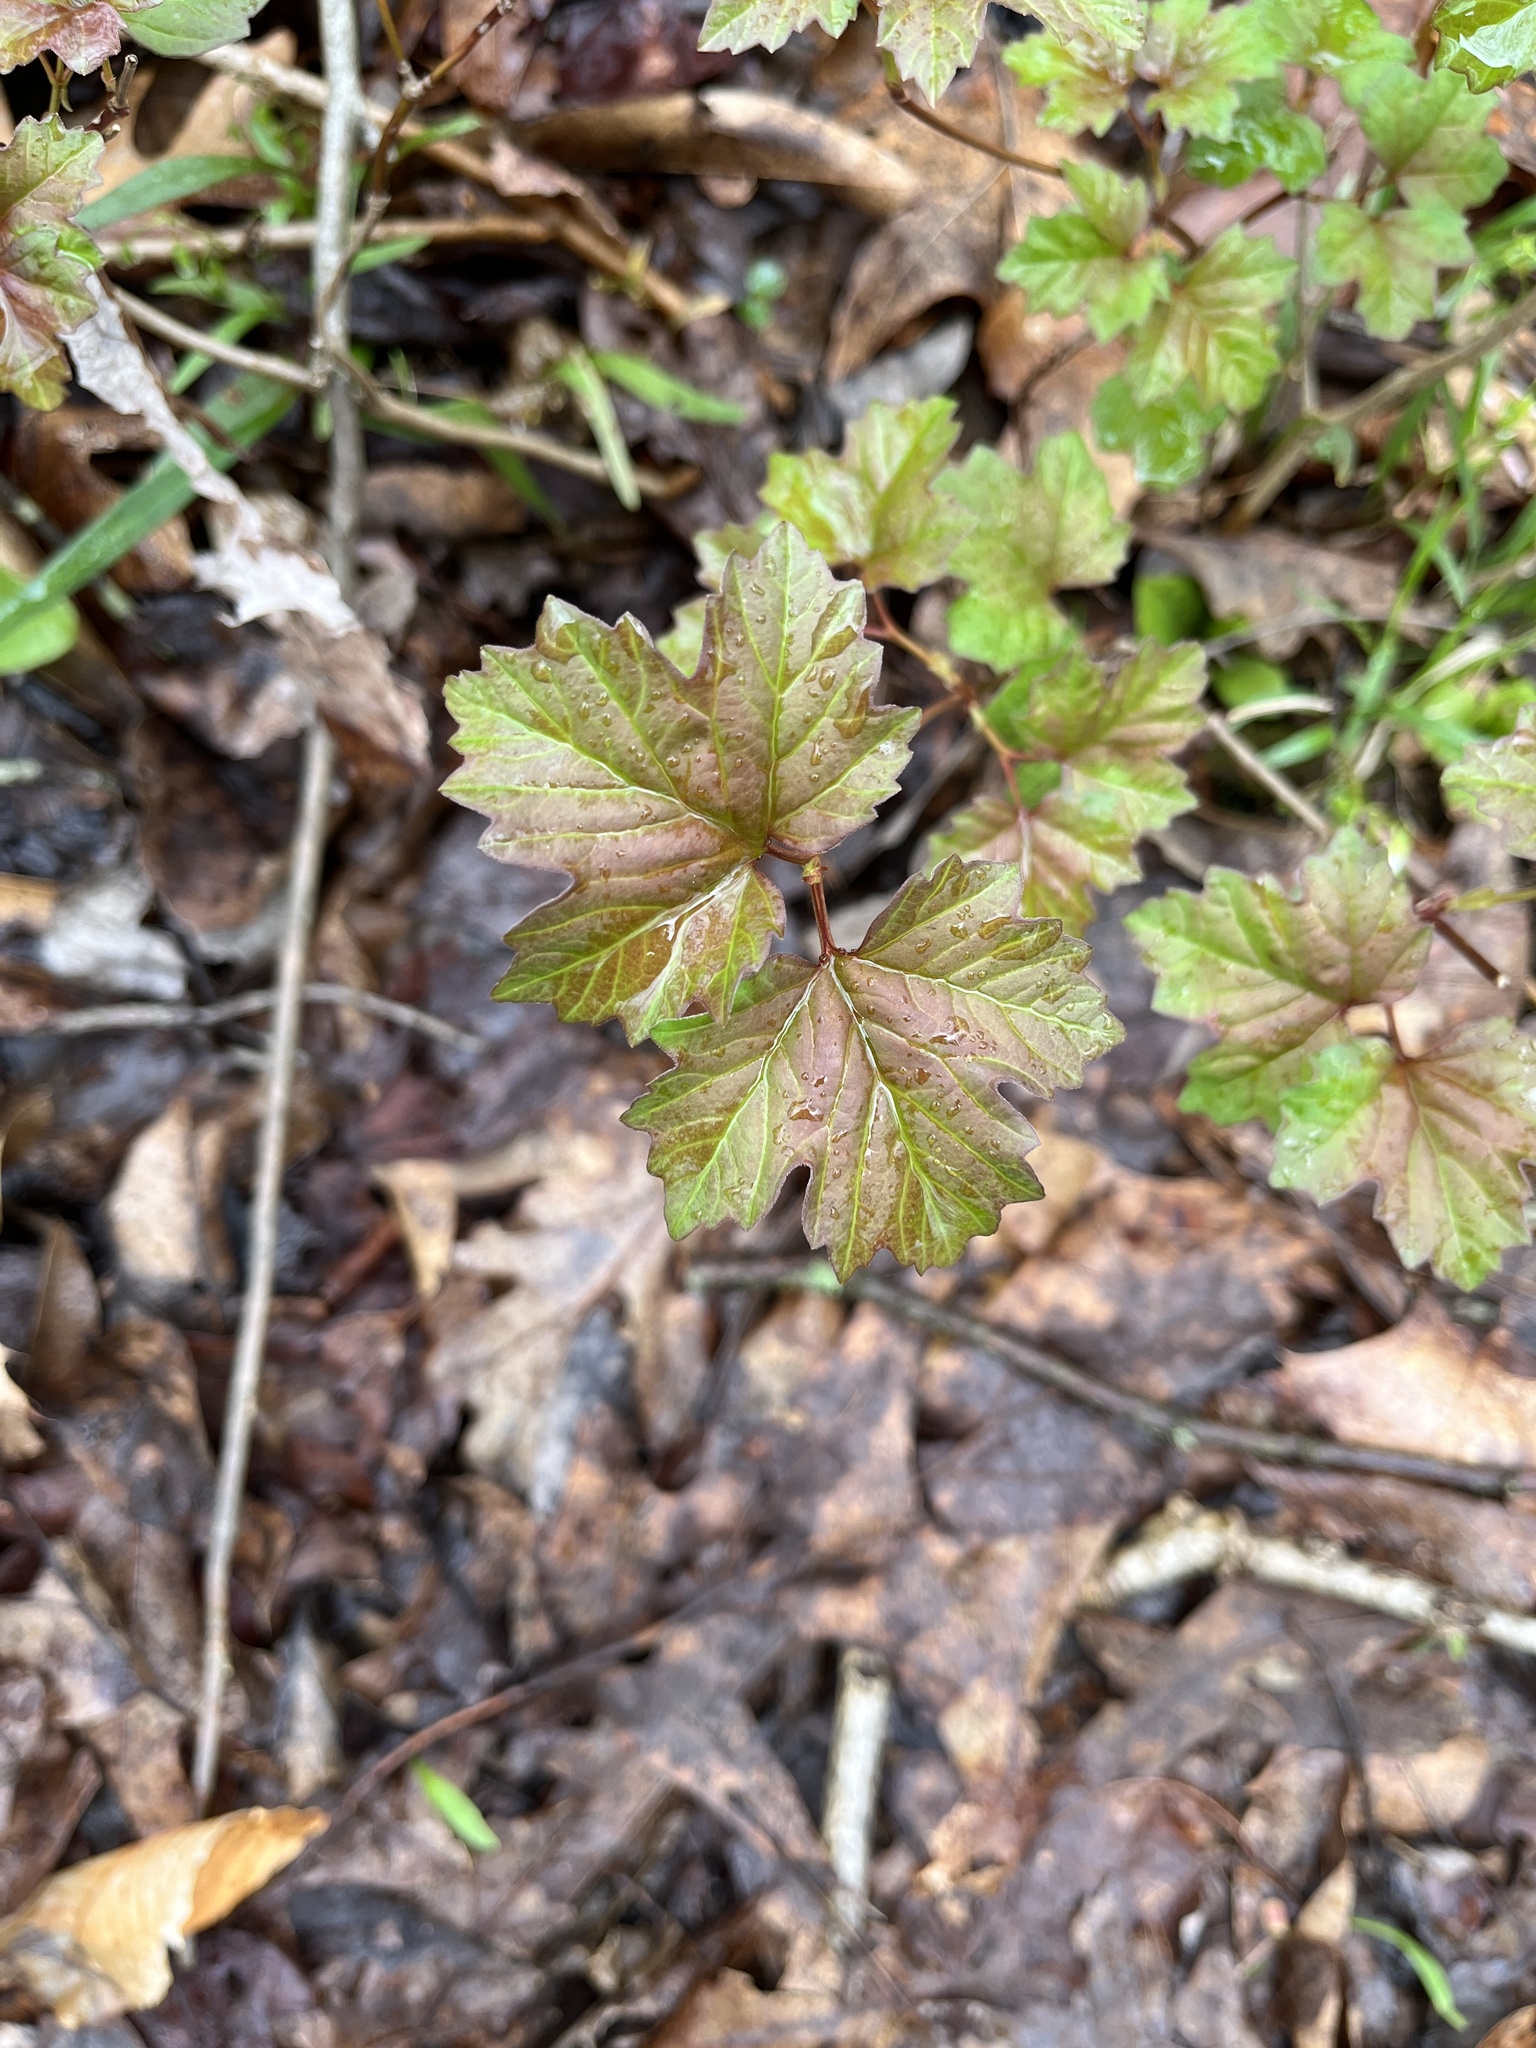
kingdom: Plantae
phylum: Tracheophyta
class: Magnoliopsida
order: Dipsacales
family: Viburnaceae
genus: Viburnum
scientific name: Viburnum opulus
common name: Guelder-rose
